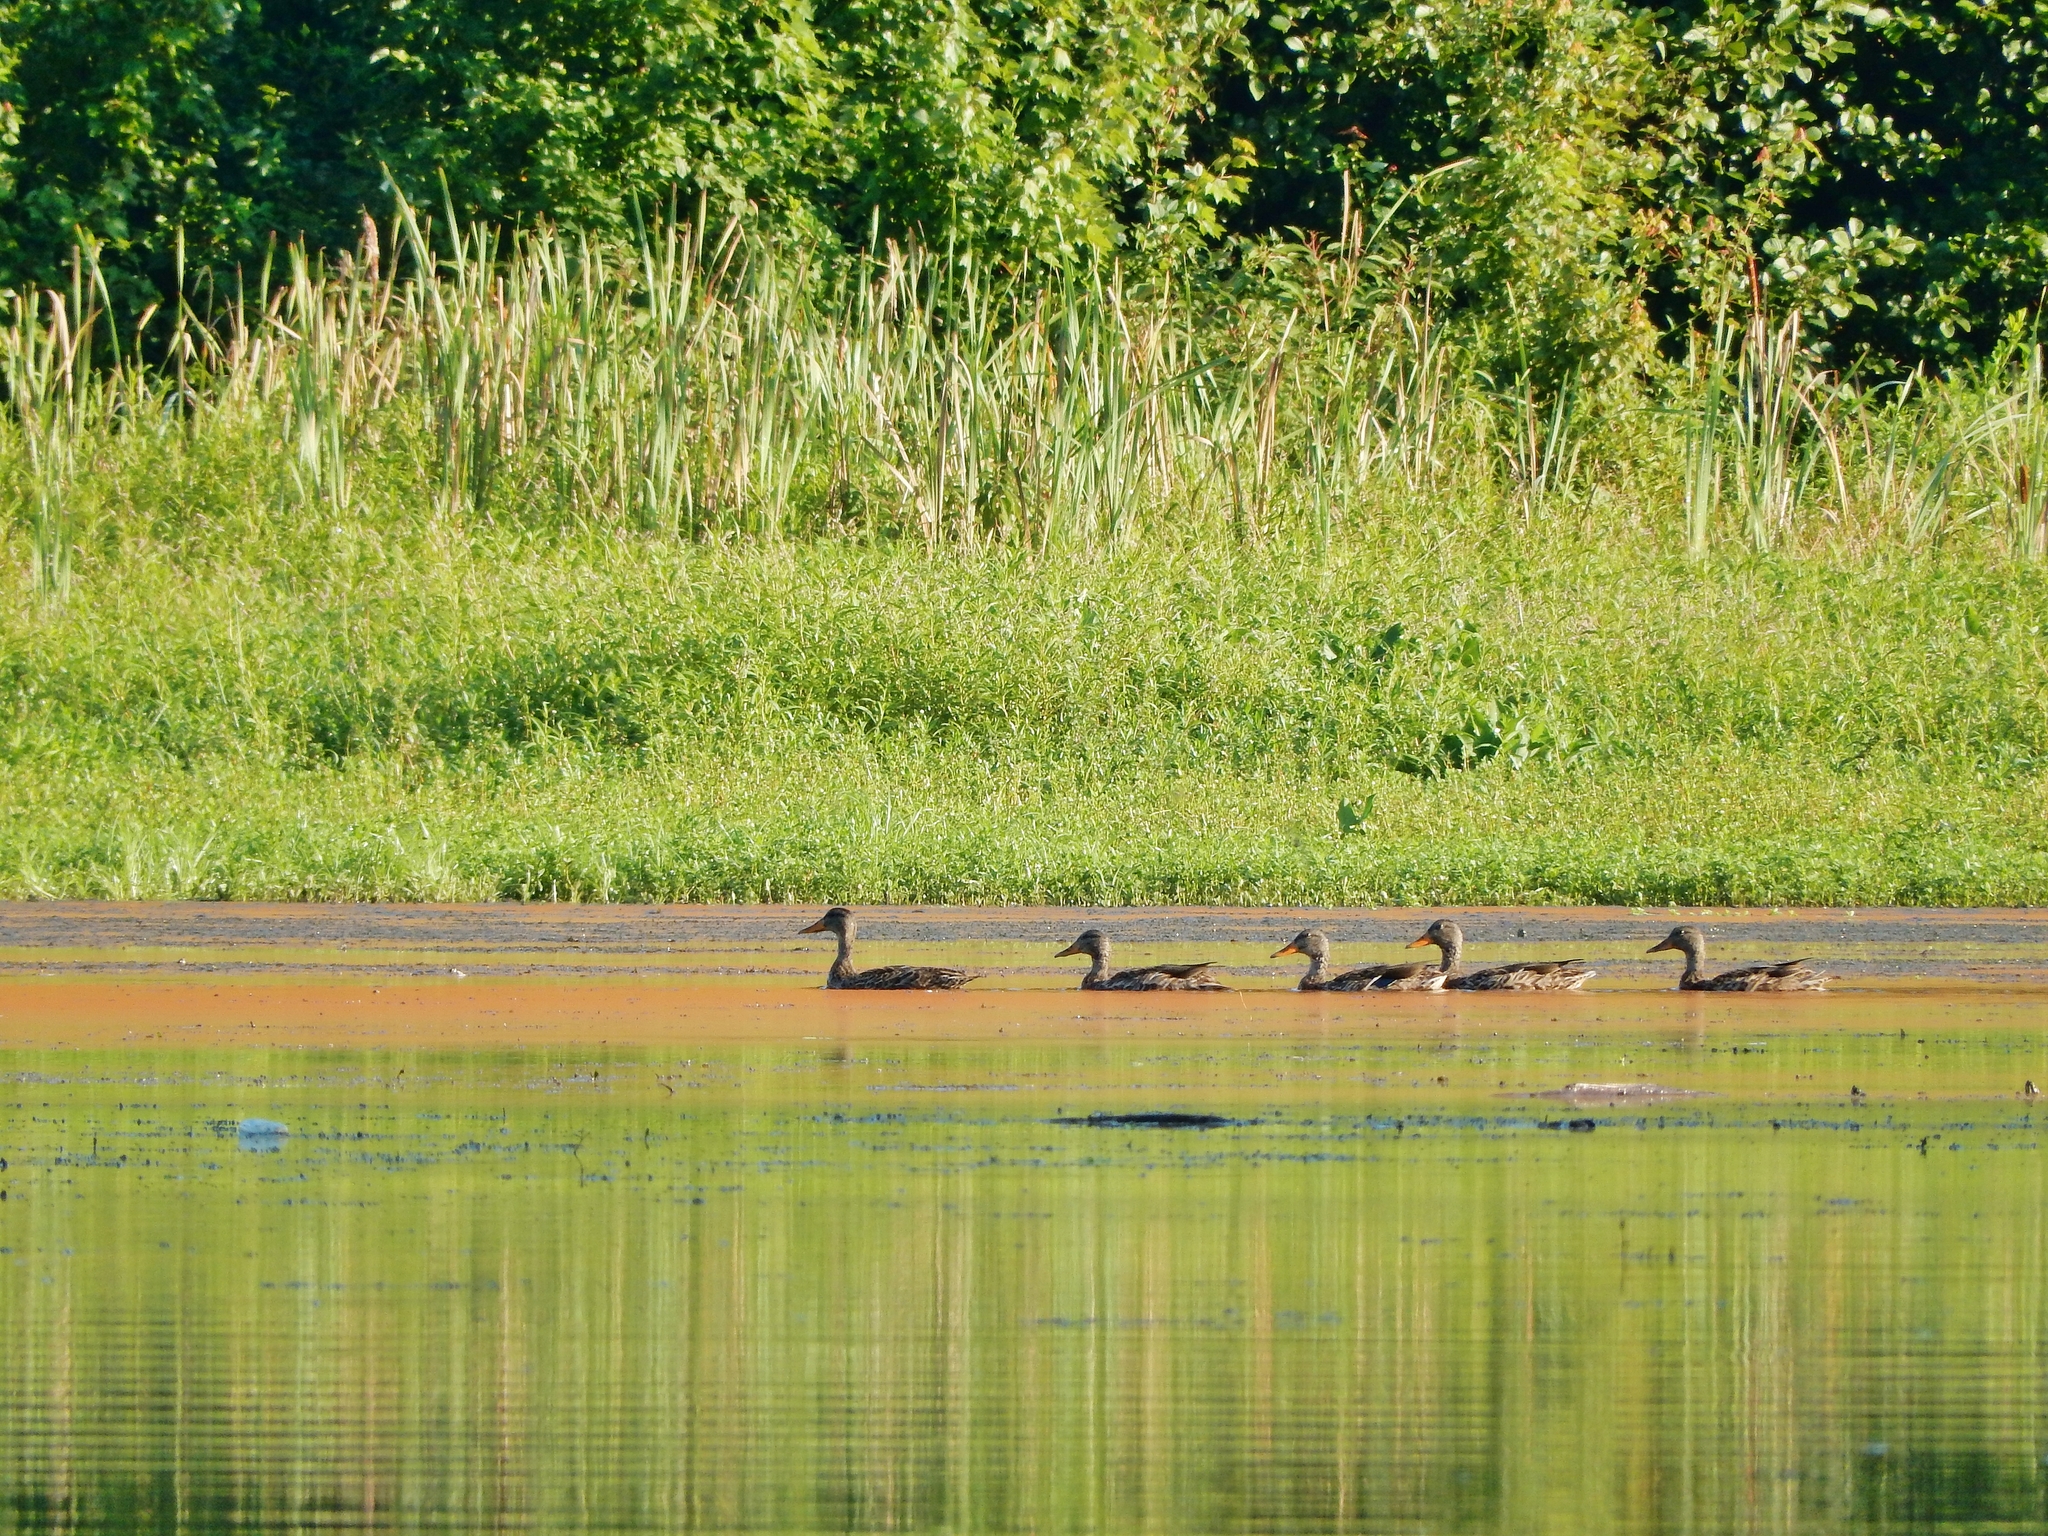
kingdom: Animalia
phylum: Chordata
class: Aves
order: Anseriformes
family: Anatidae
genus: Anas
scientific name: Anas platyrhynchos
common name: Mallard
